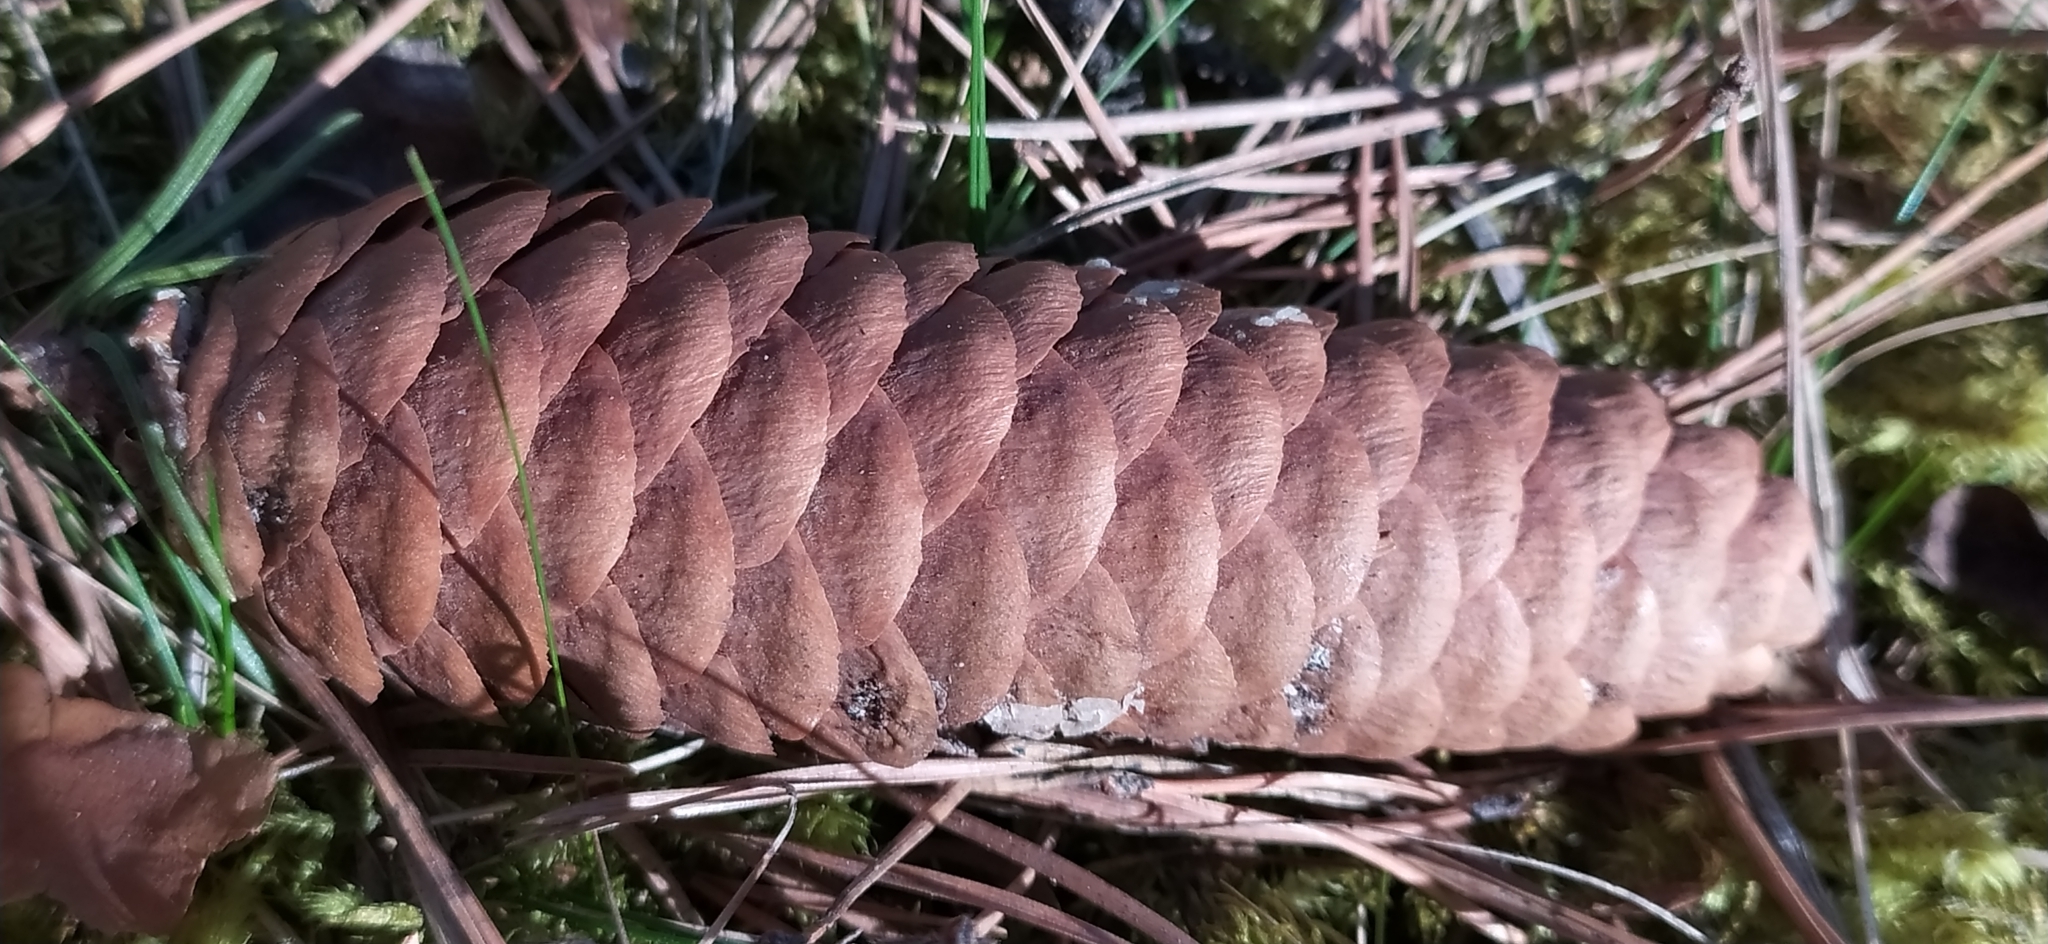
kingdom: Plantae
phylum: Tracheophyta
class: Pinopsida
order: Pinales
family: Pinaceae
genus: Picea
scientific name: Picea obovata
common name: Siberian spruce
